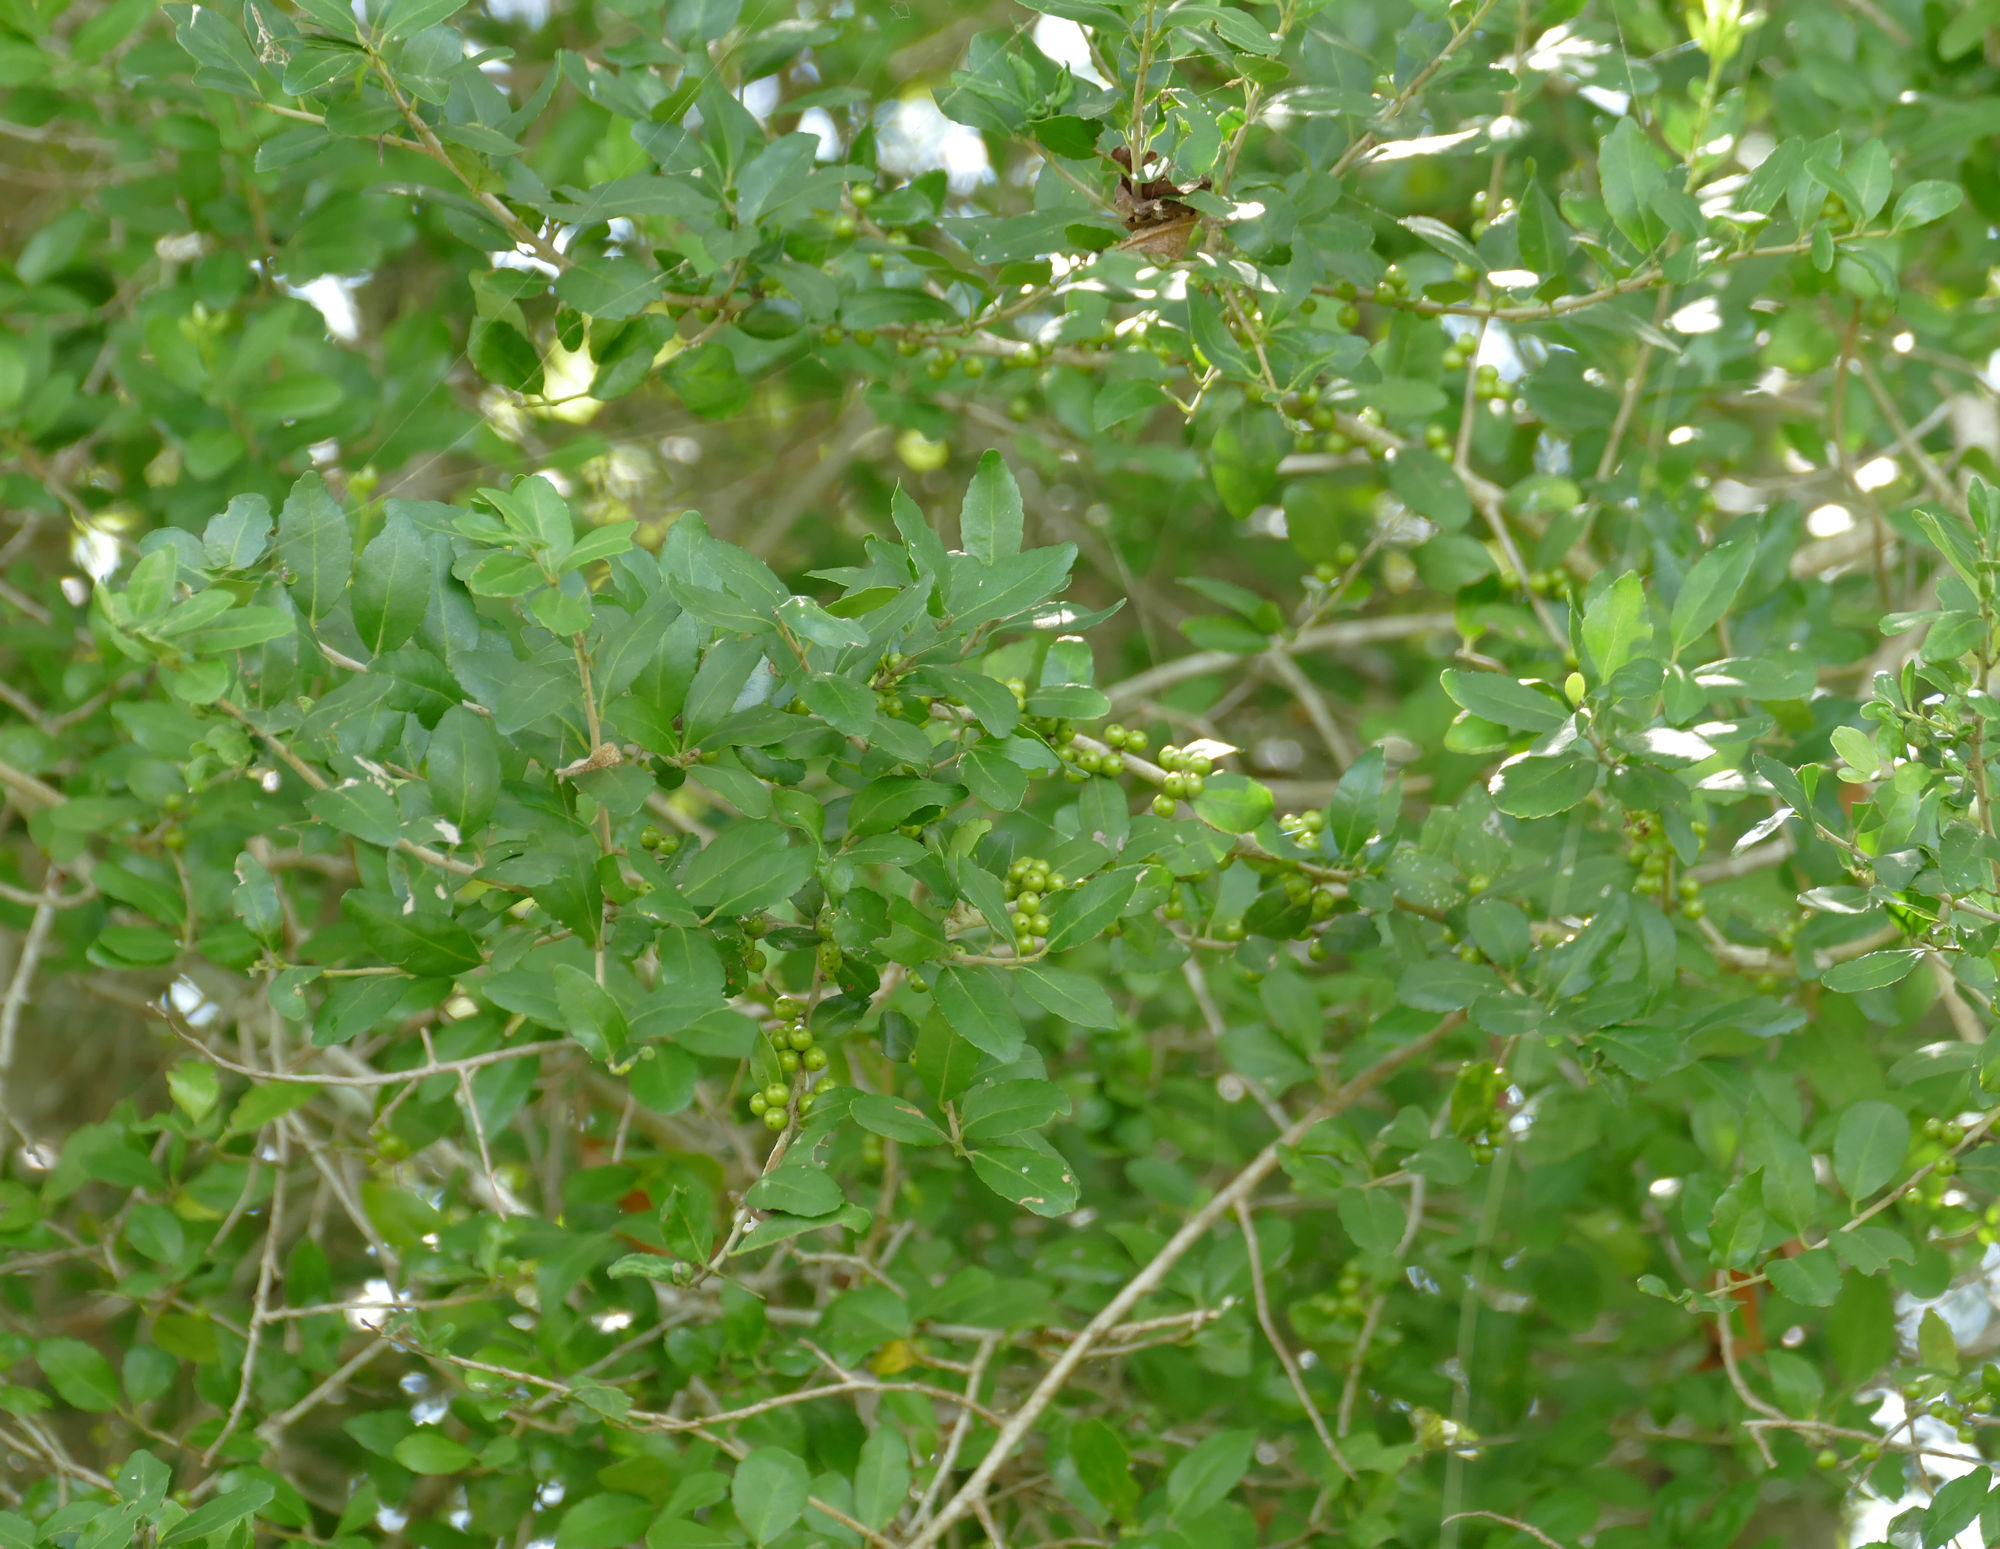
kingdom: Plantae
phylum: Tracheophyta
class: Magnoliopsida
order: Aquifoliales
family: Aquifoliaceae
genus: Ilex
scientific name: Ilex vomitoria
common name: Yaupon holly
